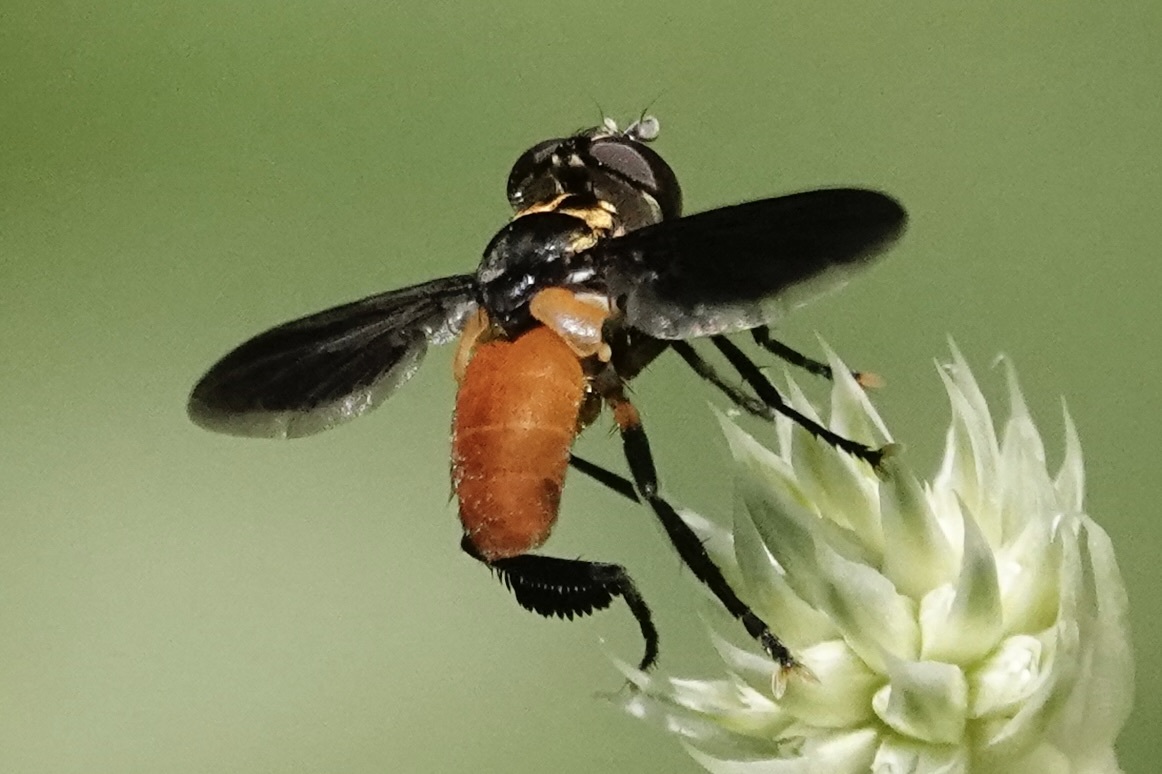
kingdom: Animalia
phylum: Arthropoda
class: Insecta
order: Diptera
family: Tachinidae
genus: Trichopoda
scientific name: Trichopoda pennipes
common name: Tachinid fly
